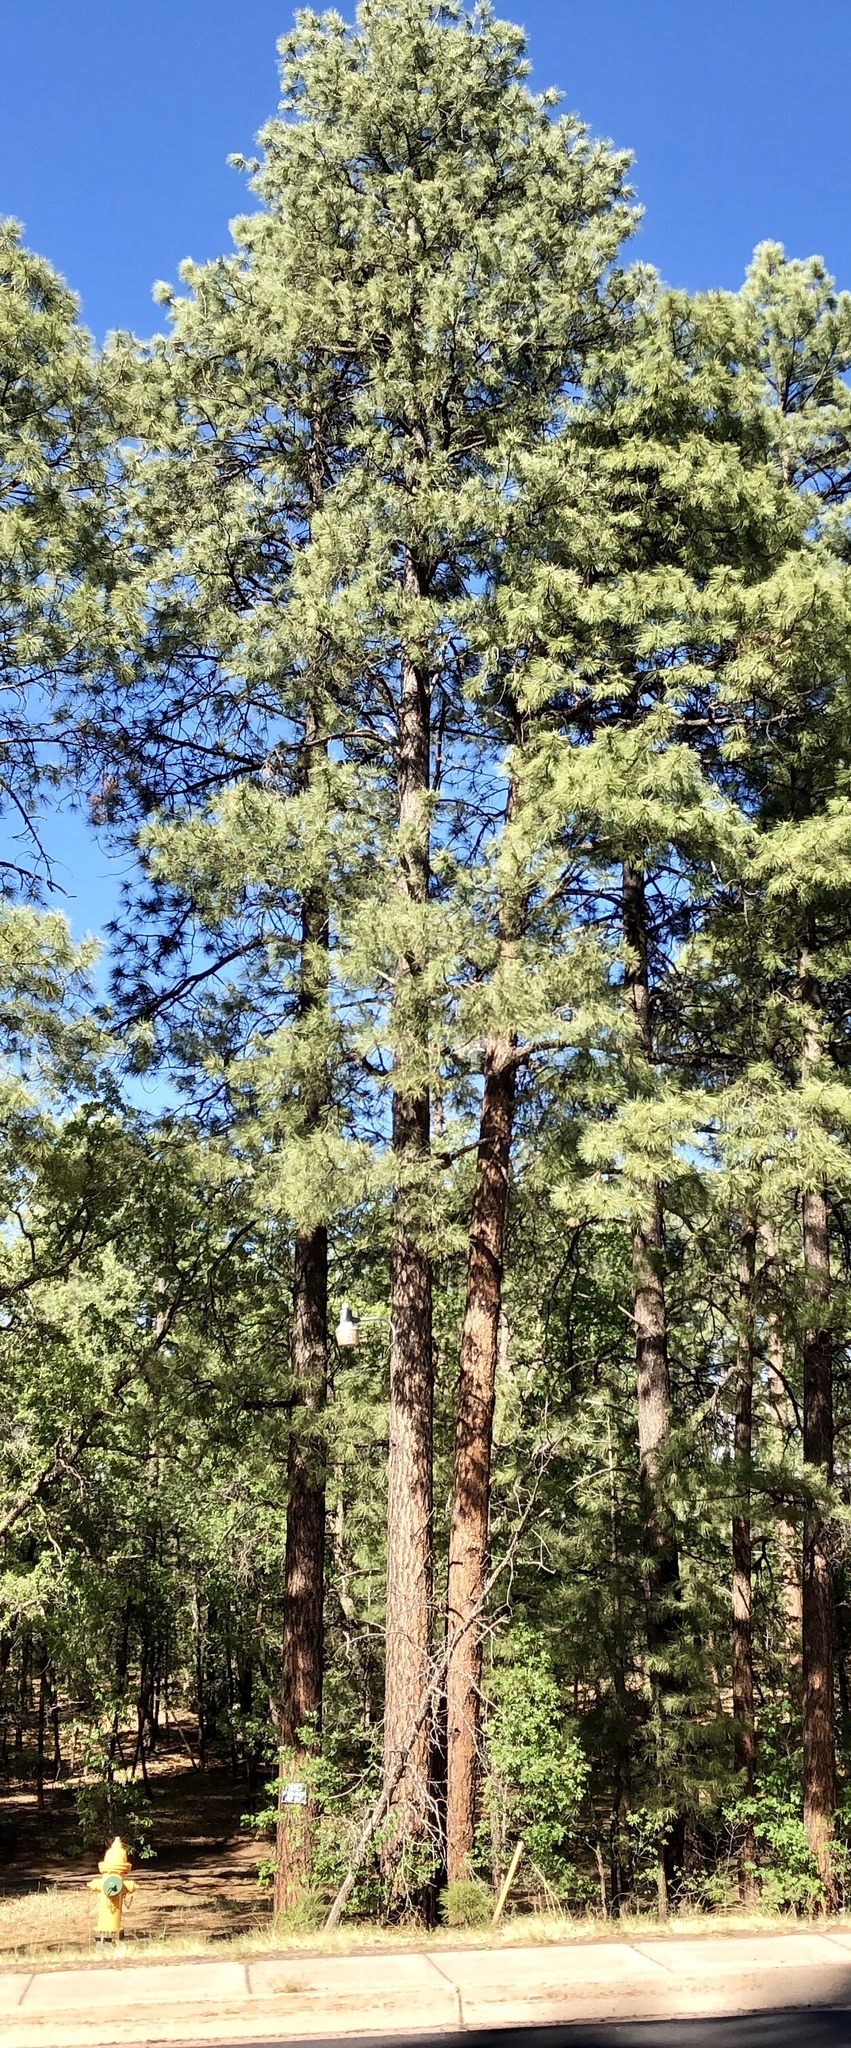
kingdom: Plantae
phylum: Tracheophyta
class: Pinopsida
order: Pinales
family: Pinaceae
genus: Pinus
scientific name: Pinus ponderosa
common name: Western yellow-pine
